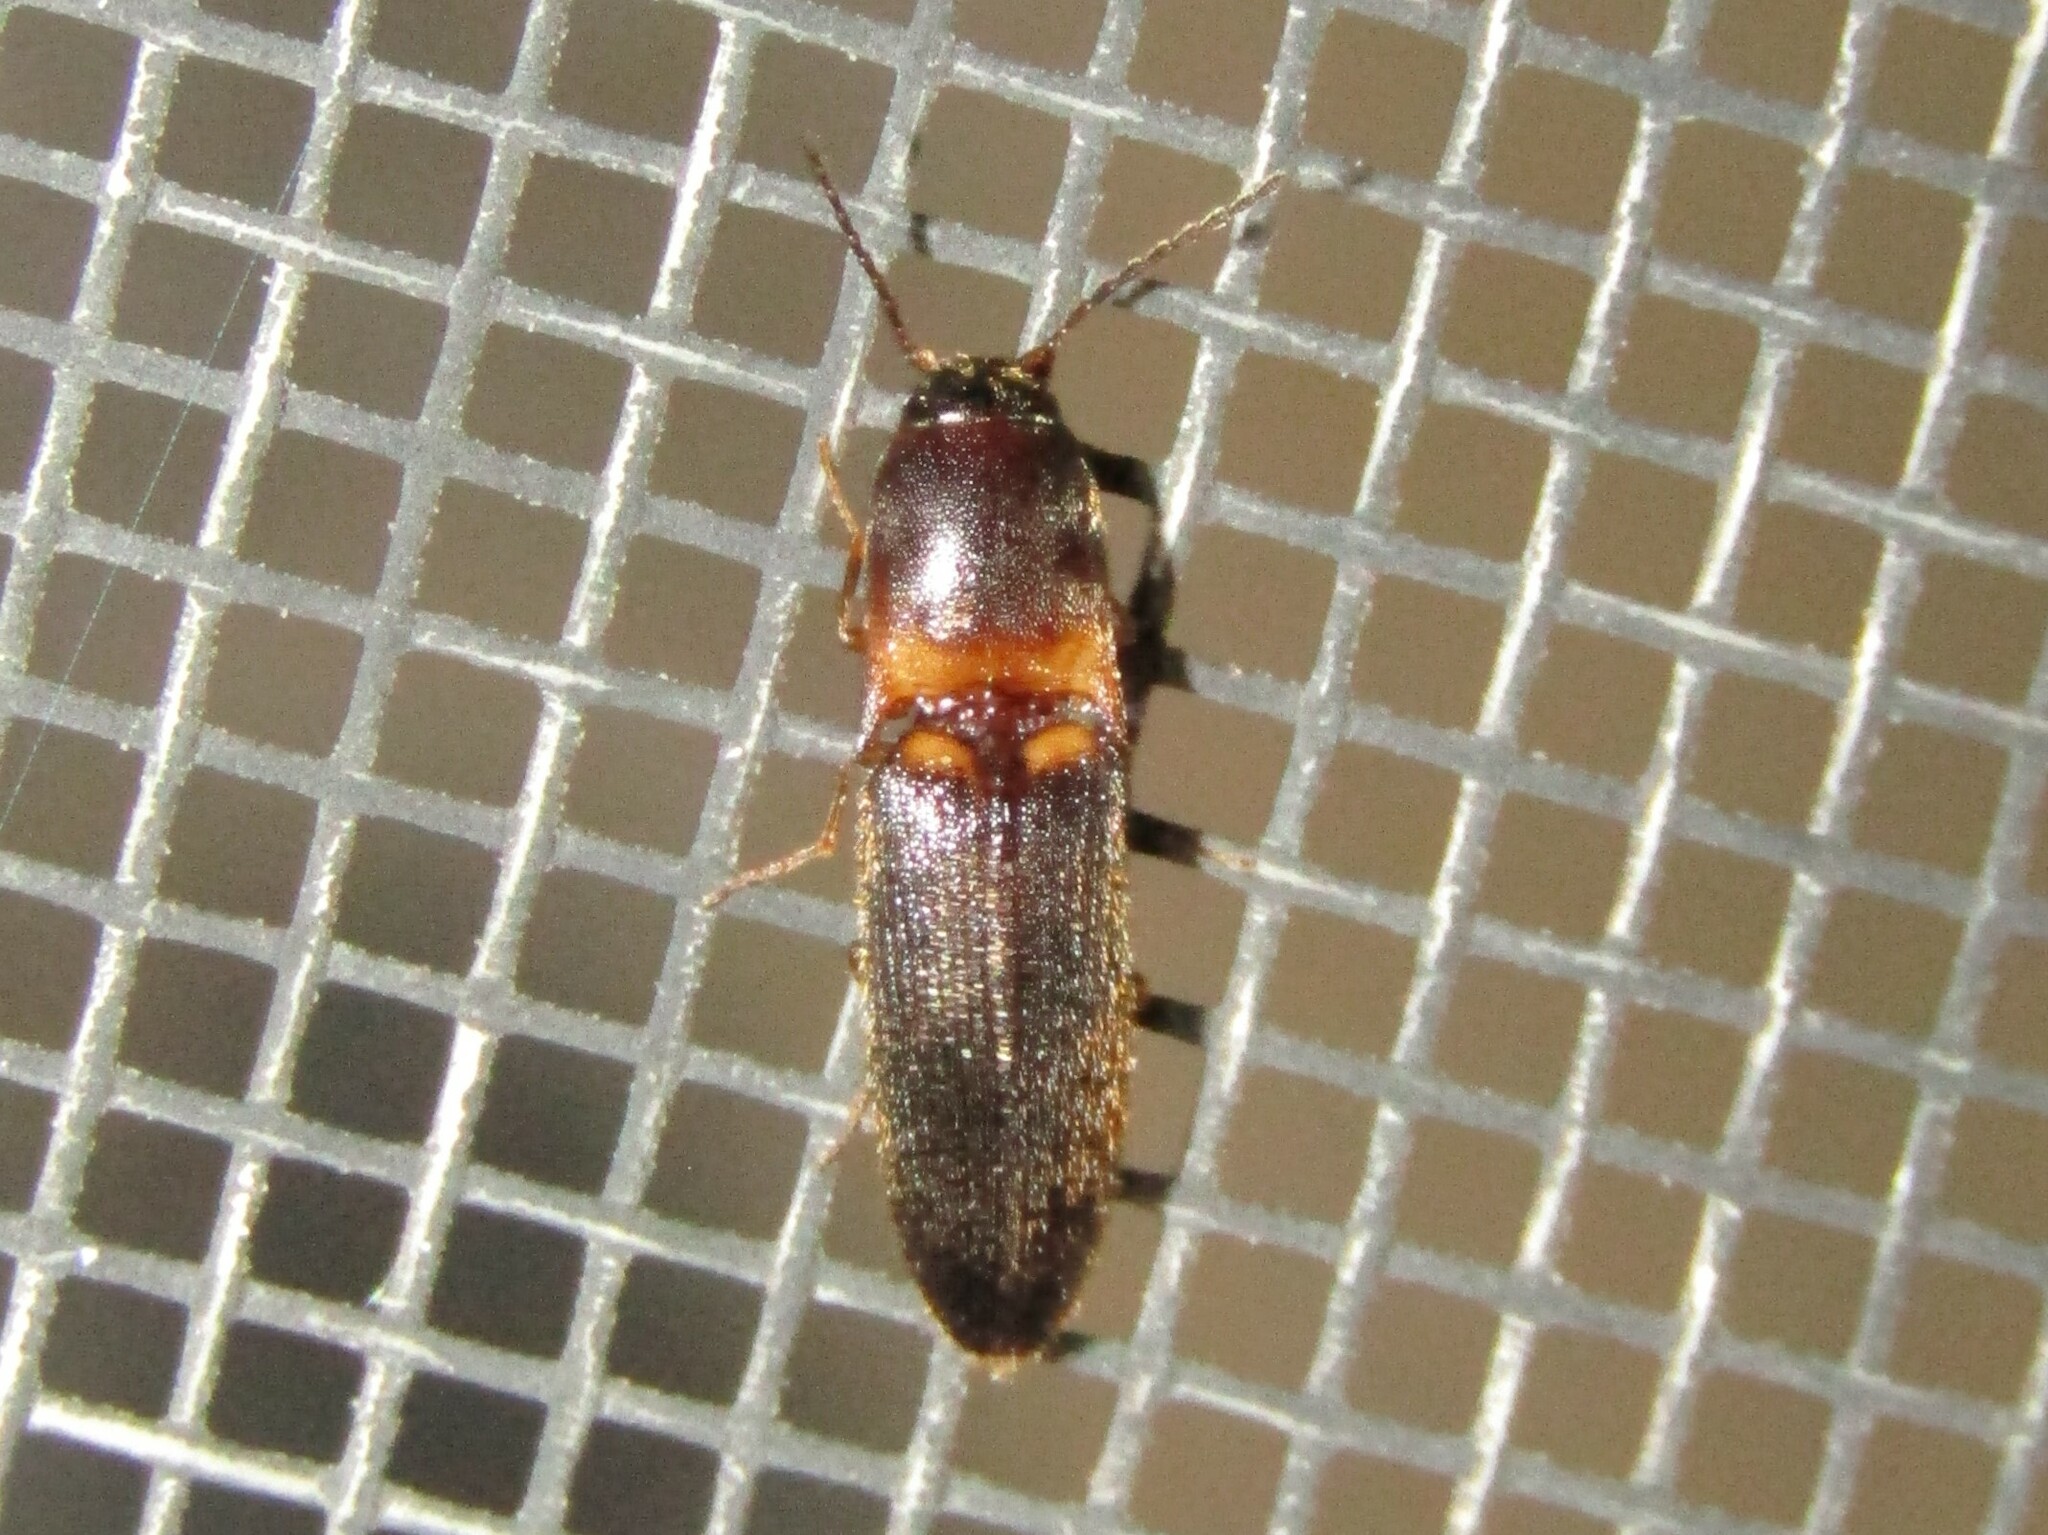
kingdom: Animalia
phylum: Arthropoda
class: Insecta
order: Coleoptera
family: Elateridae
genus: Megapenthes
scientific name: Megapenthes
